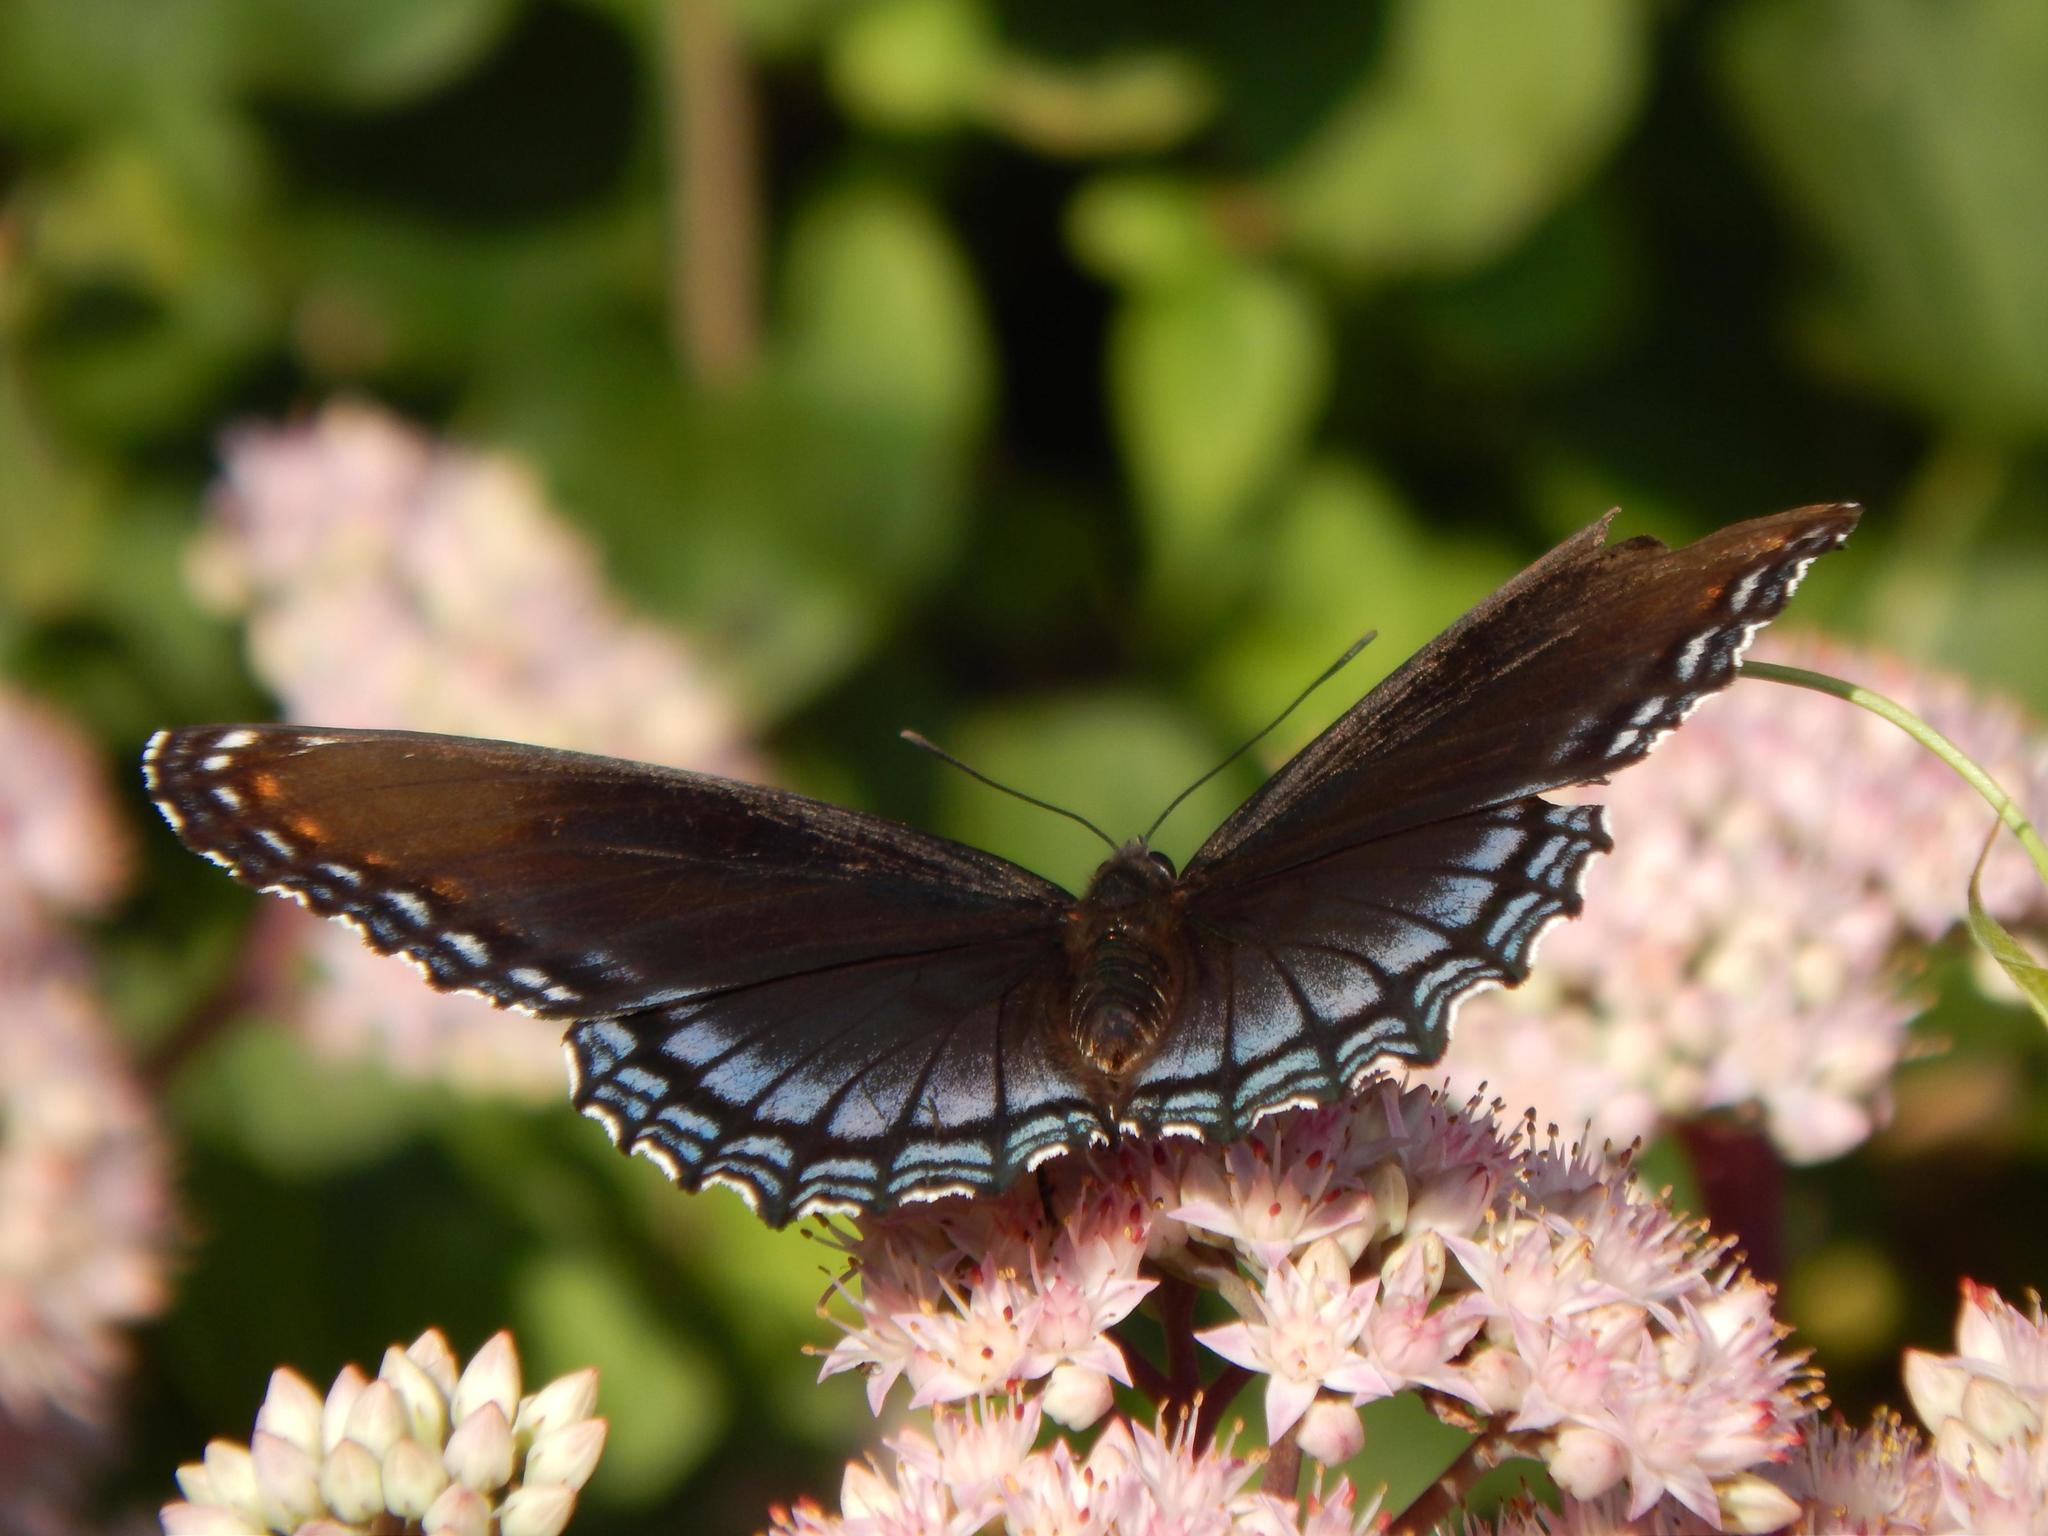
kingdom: Animalia
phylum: Arthropoda
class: Insecta
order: Lepidoptera
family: Nymphalidae
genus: Limenitis
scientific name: Limenitis astyanax
